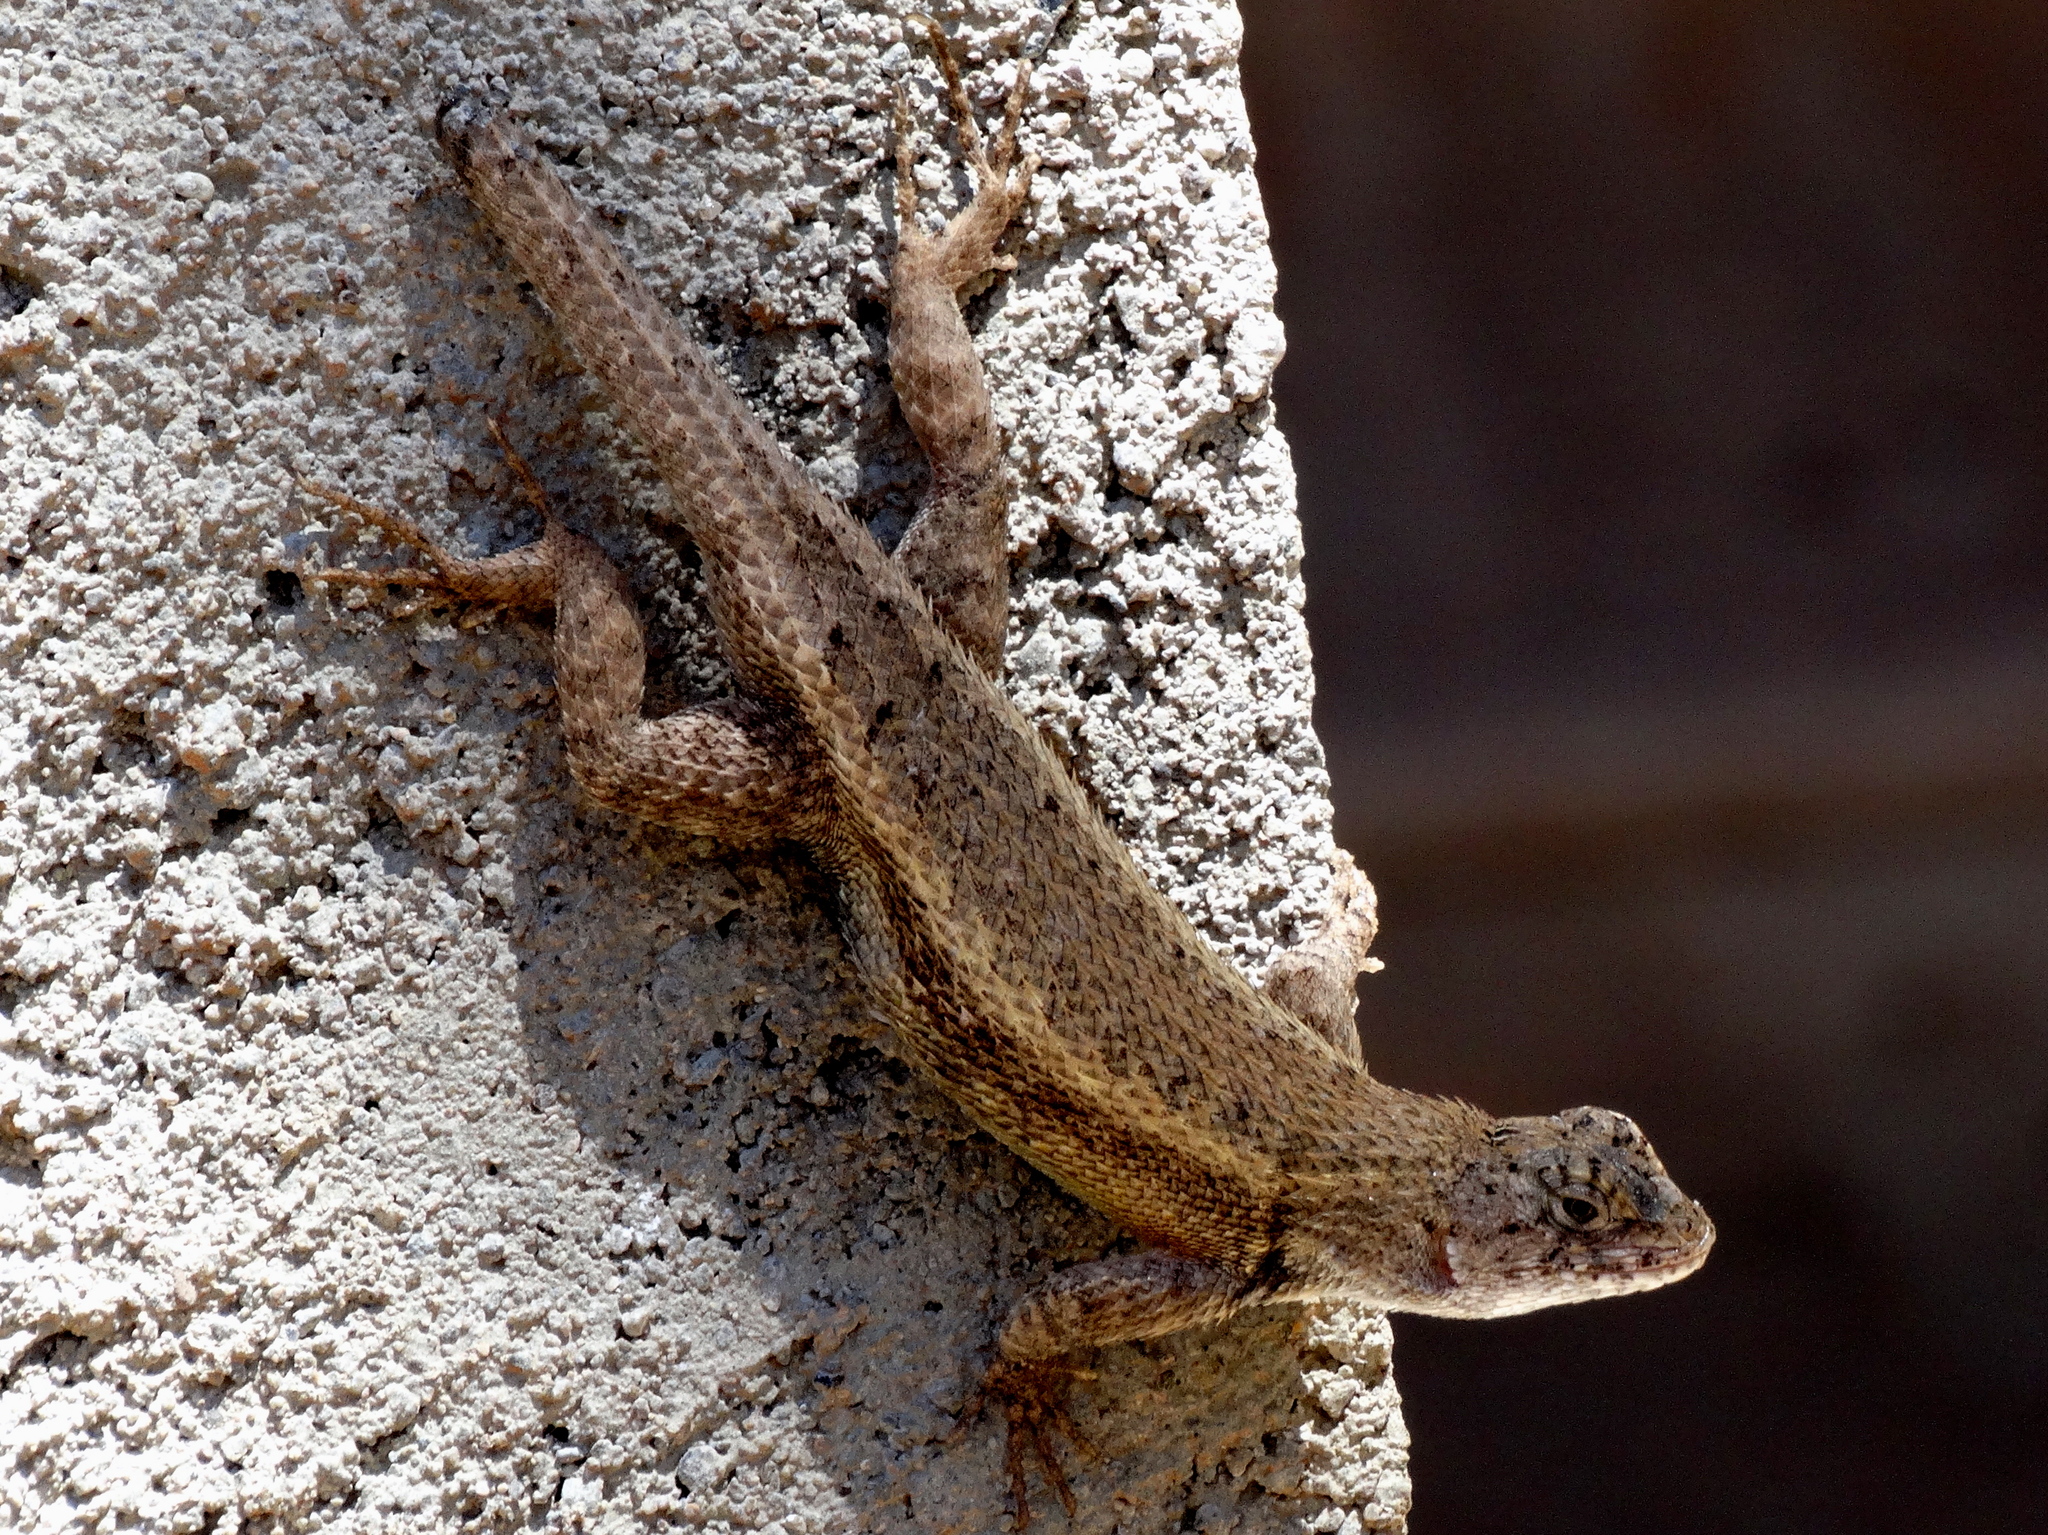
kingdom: Animalia
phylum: Chordata
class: Squamata
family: Phrynosomatidae
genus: Sceloporus
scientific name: Sceloporus nelsoni
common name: Nelson's spiny lizard
